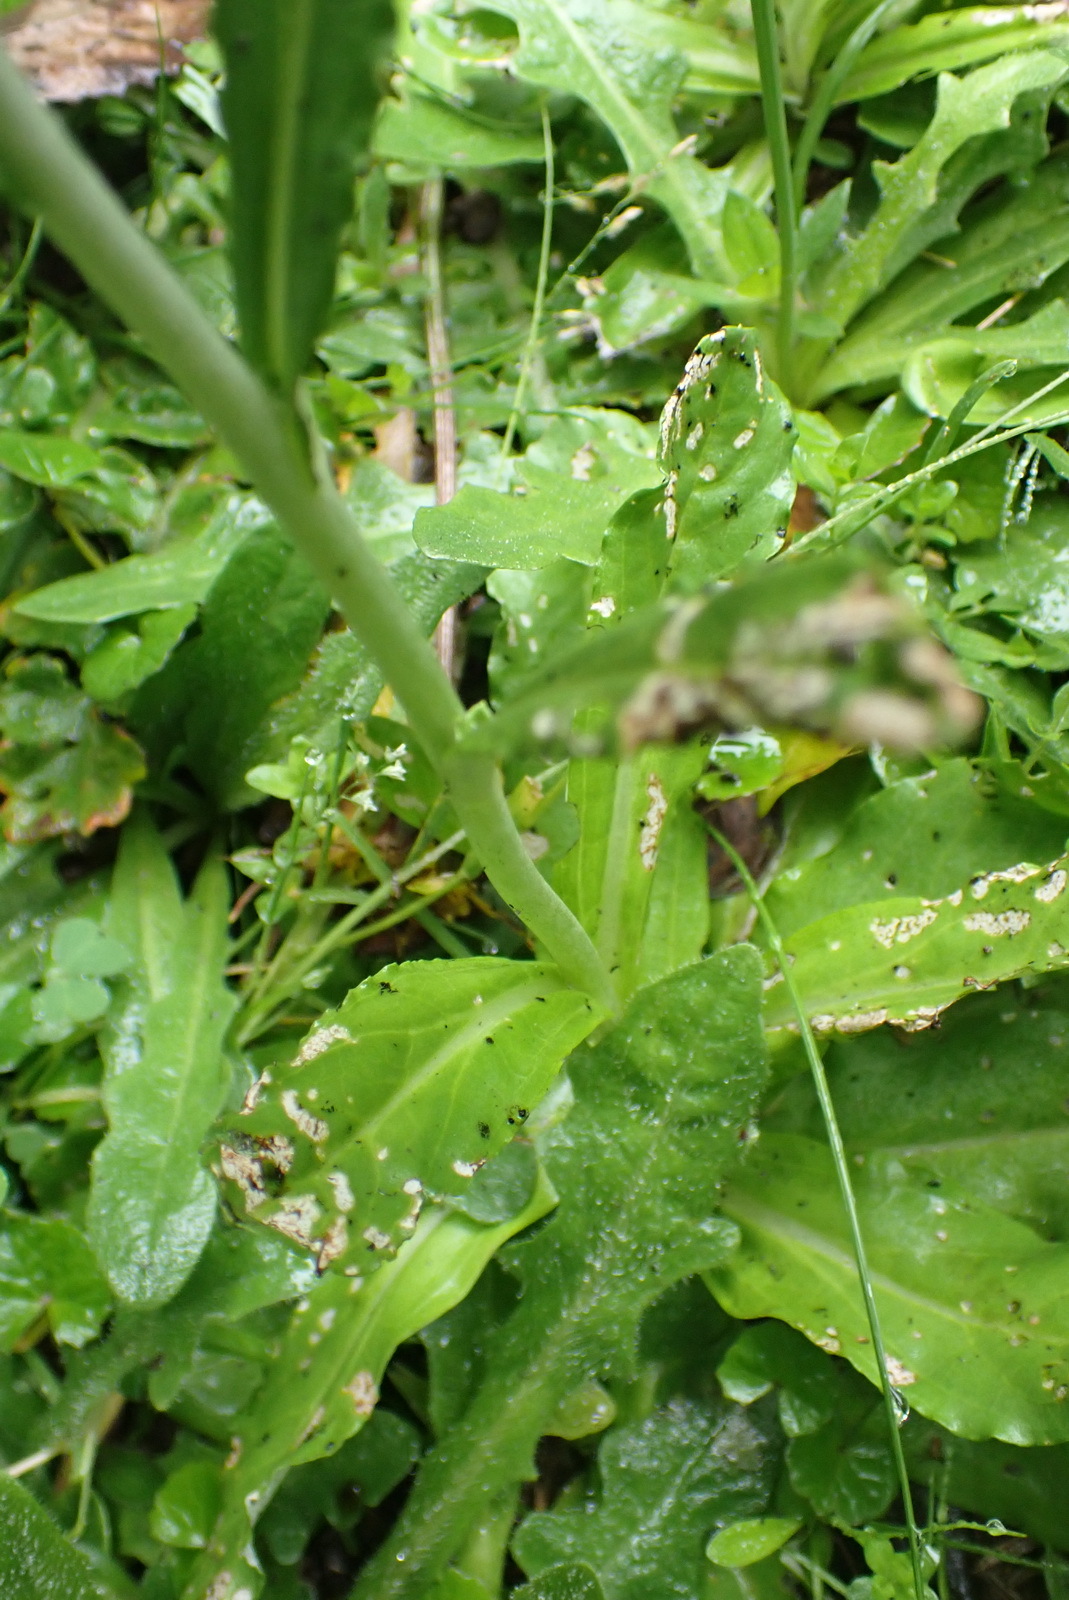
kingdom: Plantae
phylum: Tracheophyta
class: Magnoliopsida
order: Asterales
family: Asteraceae
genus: Gamochaeta
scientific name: Gamochaeta americana
